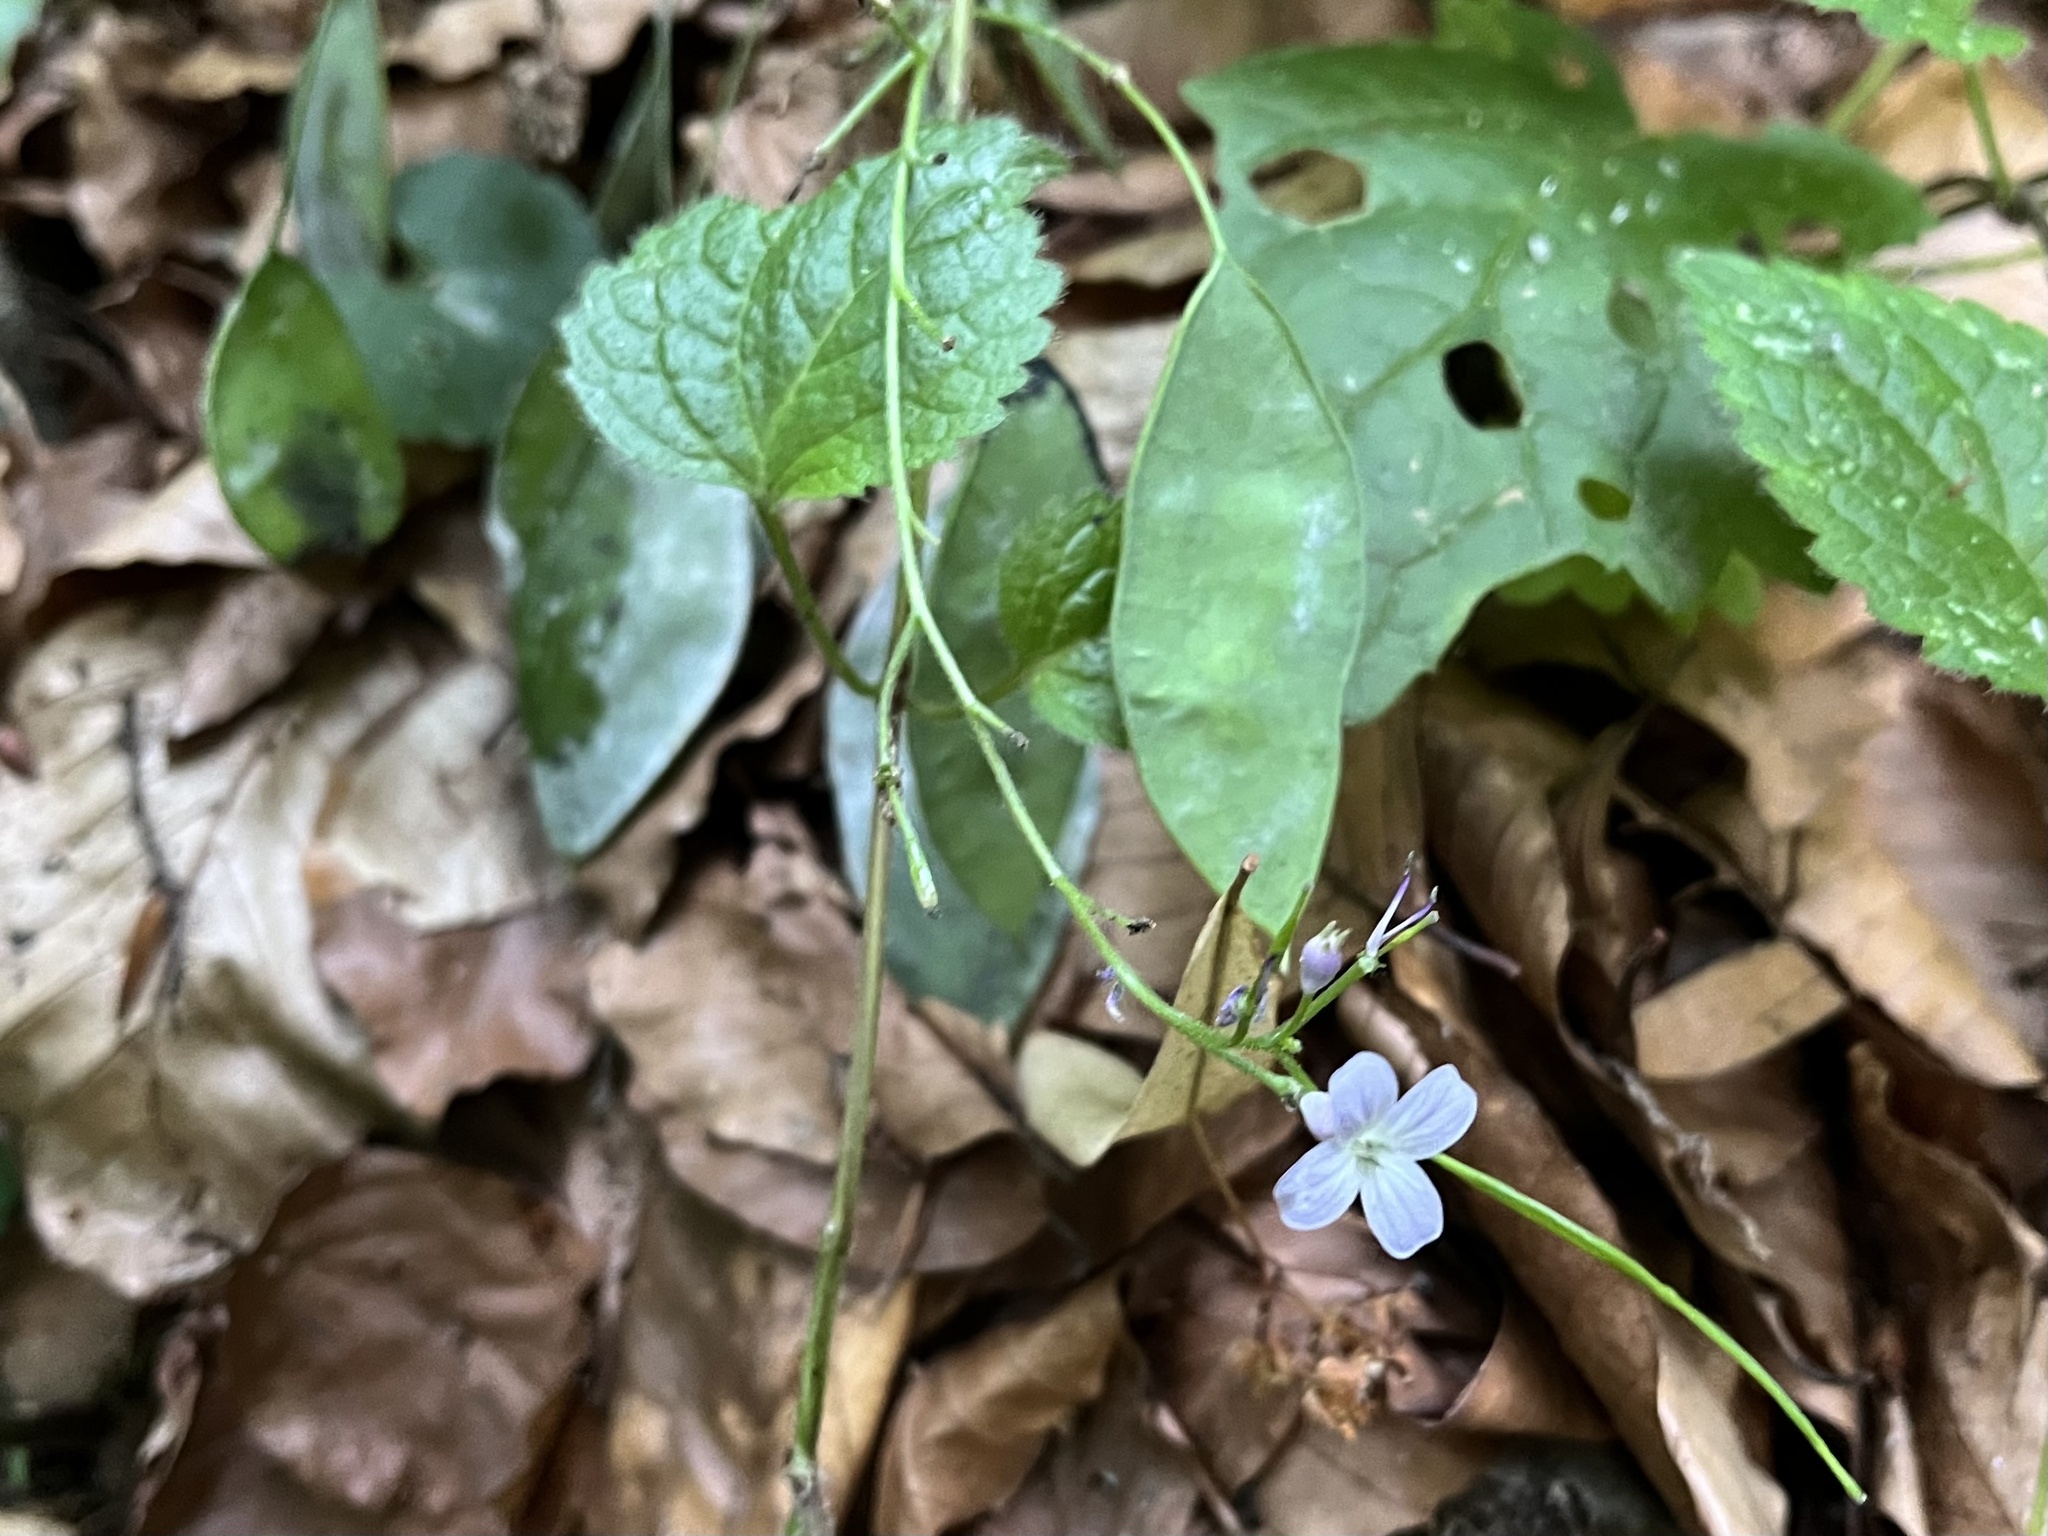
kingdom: Plantae
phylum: Tracheophyta
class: Magnoliopsida
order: Brassicales
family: Brassicaceae
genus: Lunaria
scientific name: Lunaria rediviva
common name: Perennial honesty
